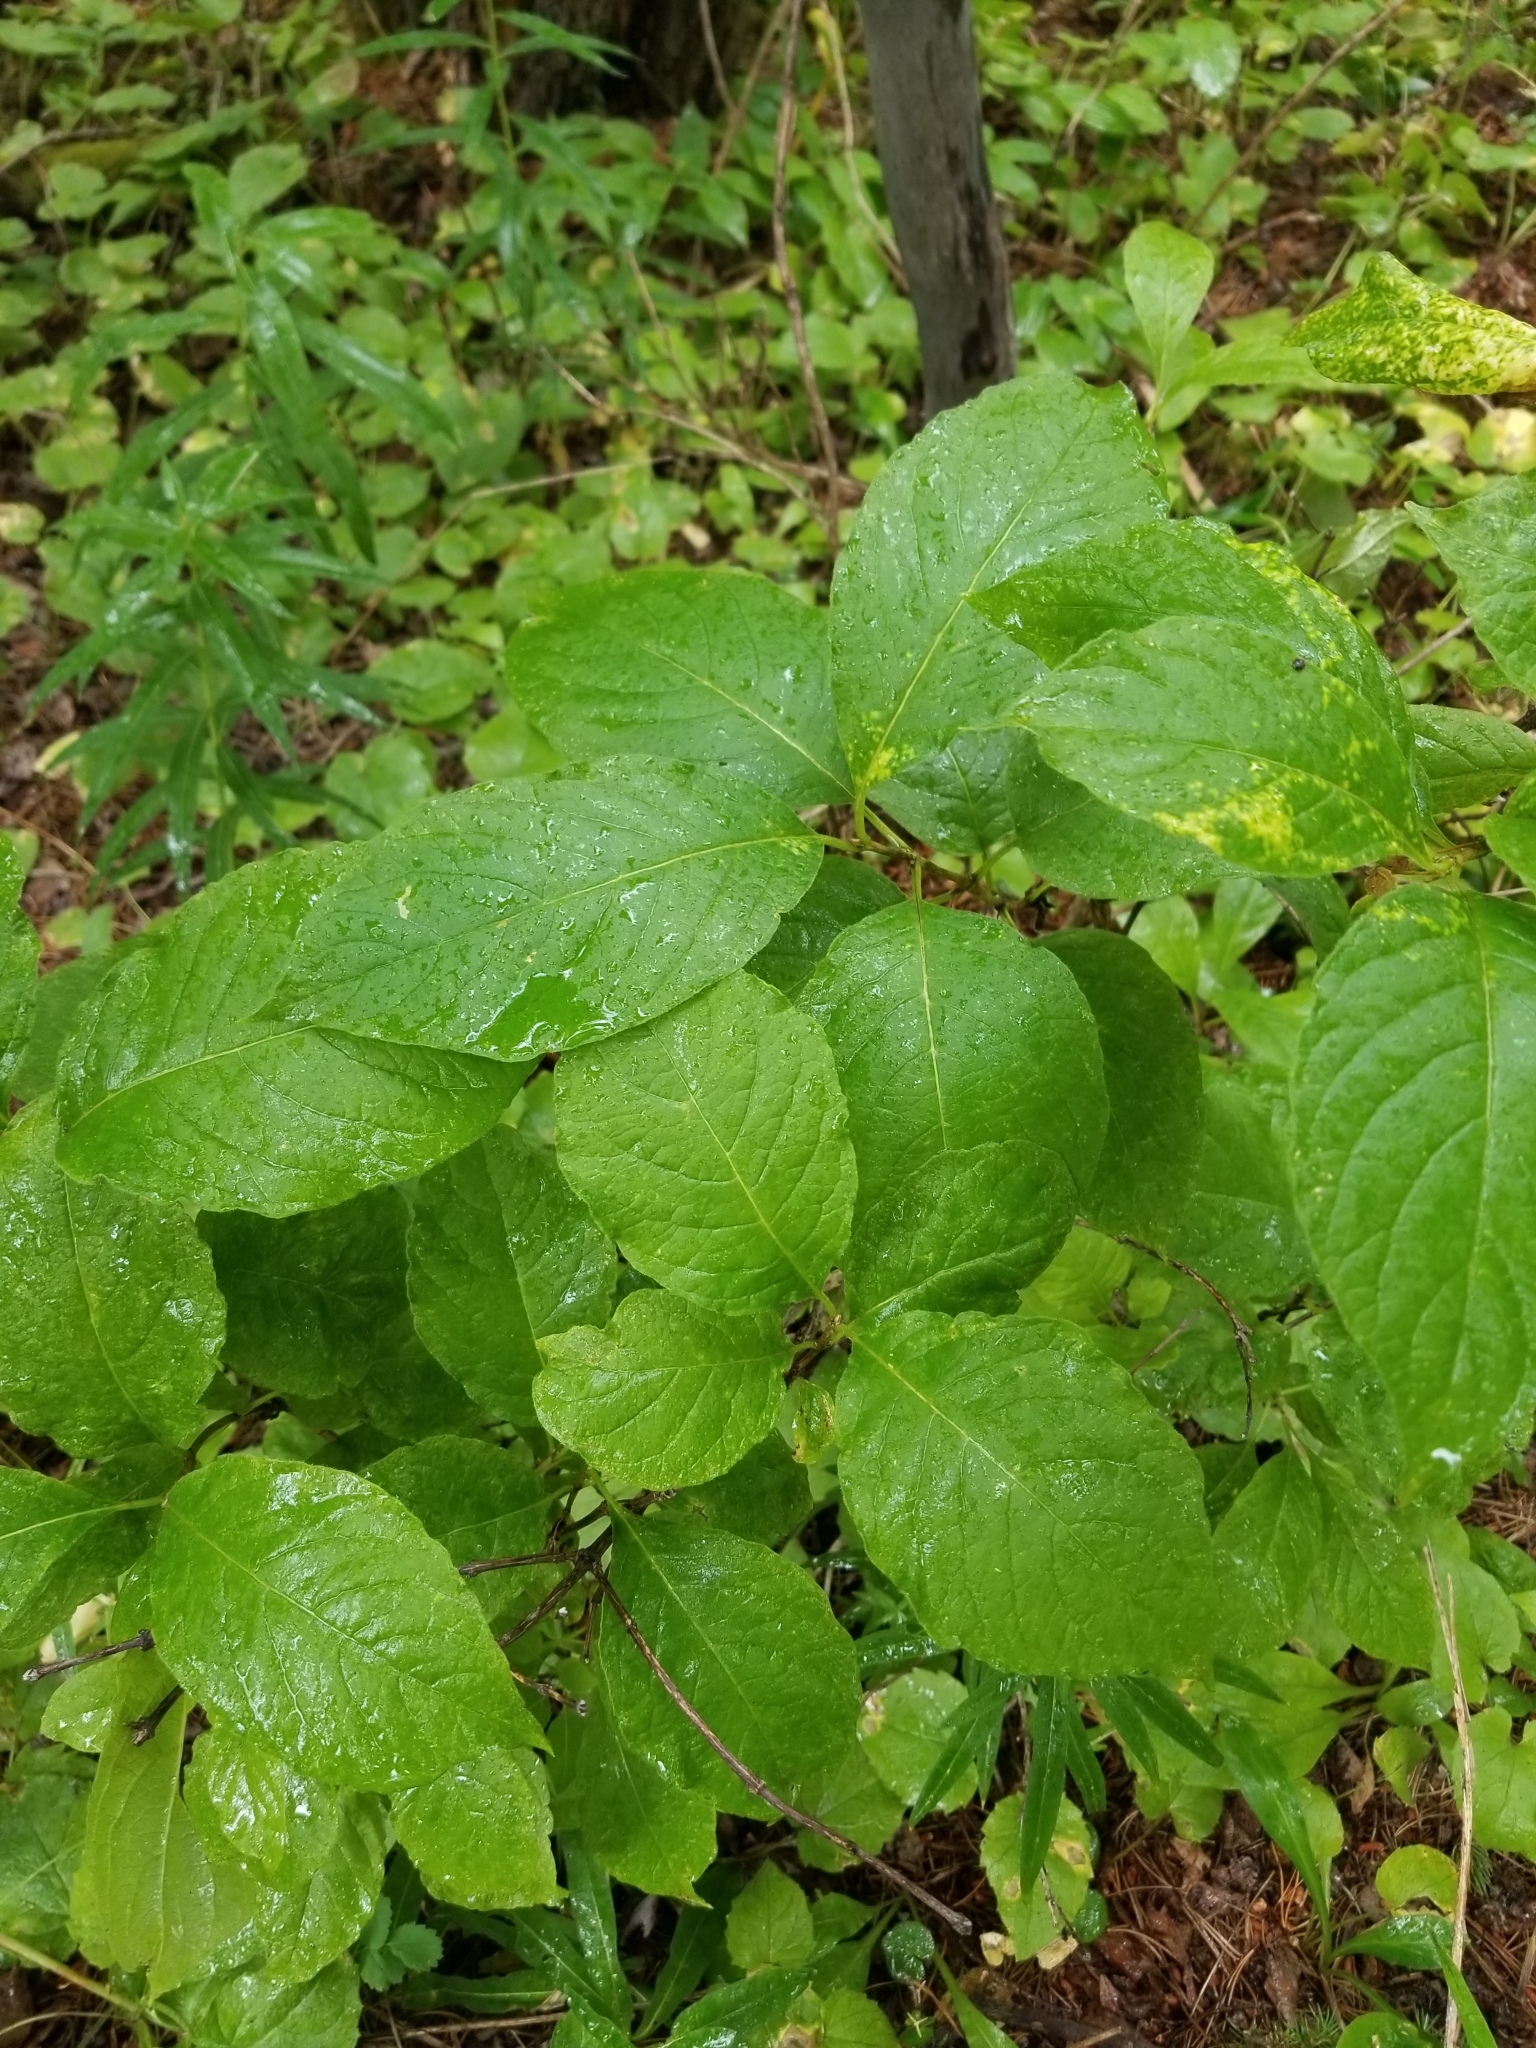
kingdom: Plantae
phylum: Tracheophyta
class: Magnoliopsida
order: Dipsacales
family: Caprifoliaceae
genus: Lonicera
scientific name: Lonicera involucrata
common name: Californian honeysuckle
